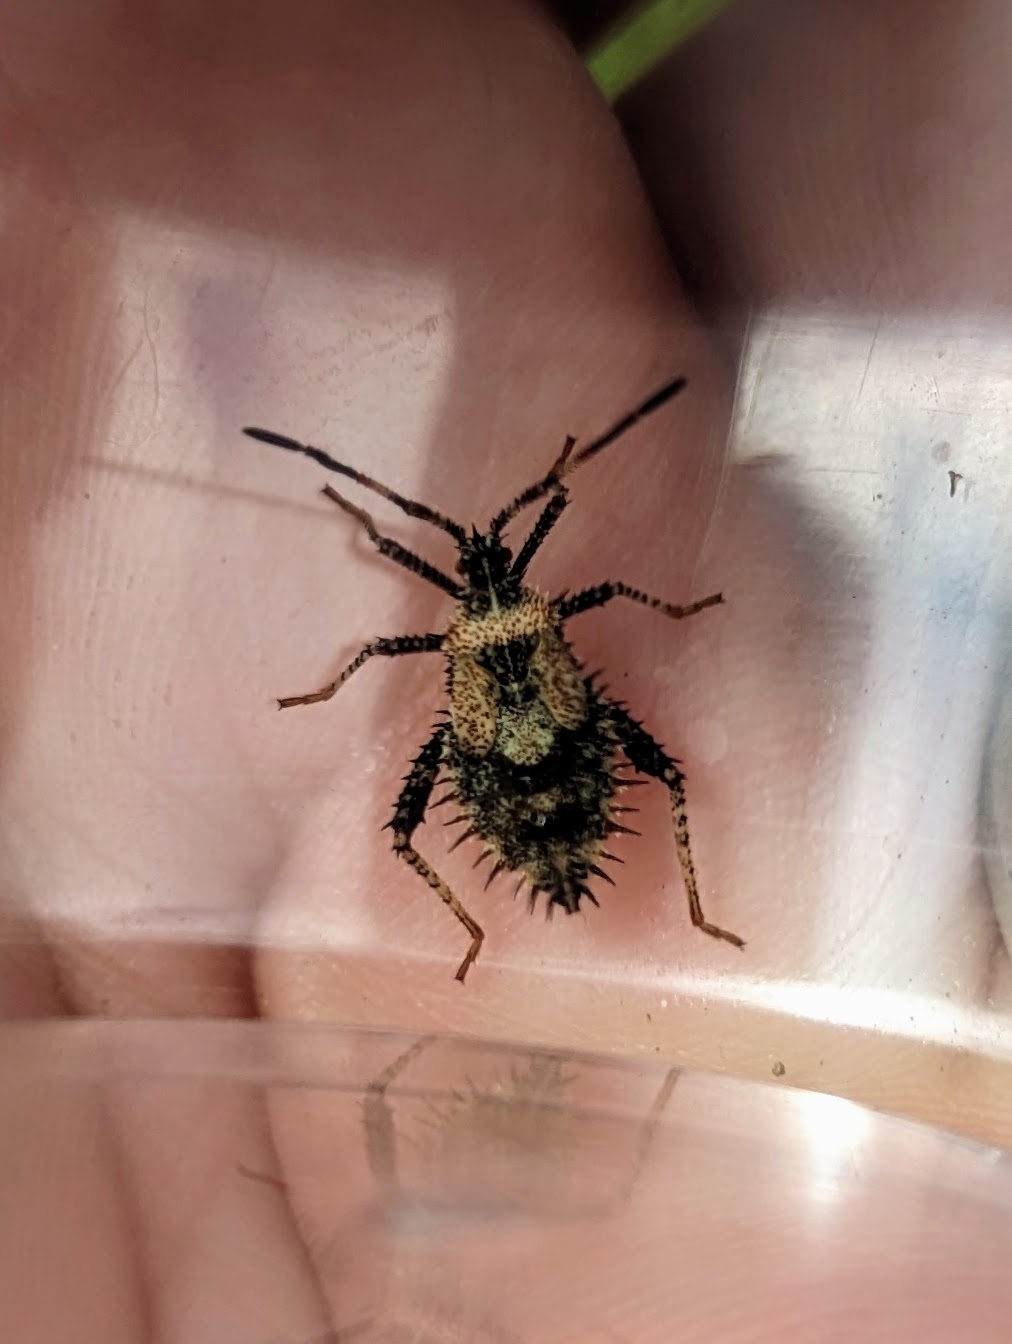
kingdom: Animalia
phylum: Arthropoda
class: Insecta
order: Hemiptera
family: Coreidae
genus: Euthochtha
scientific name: Euthochtha galeator
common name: Helmeted squash bug
